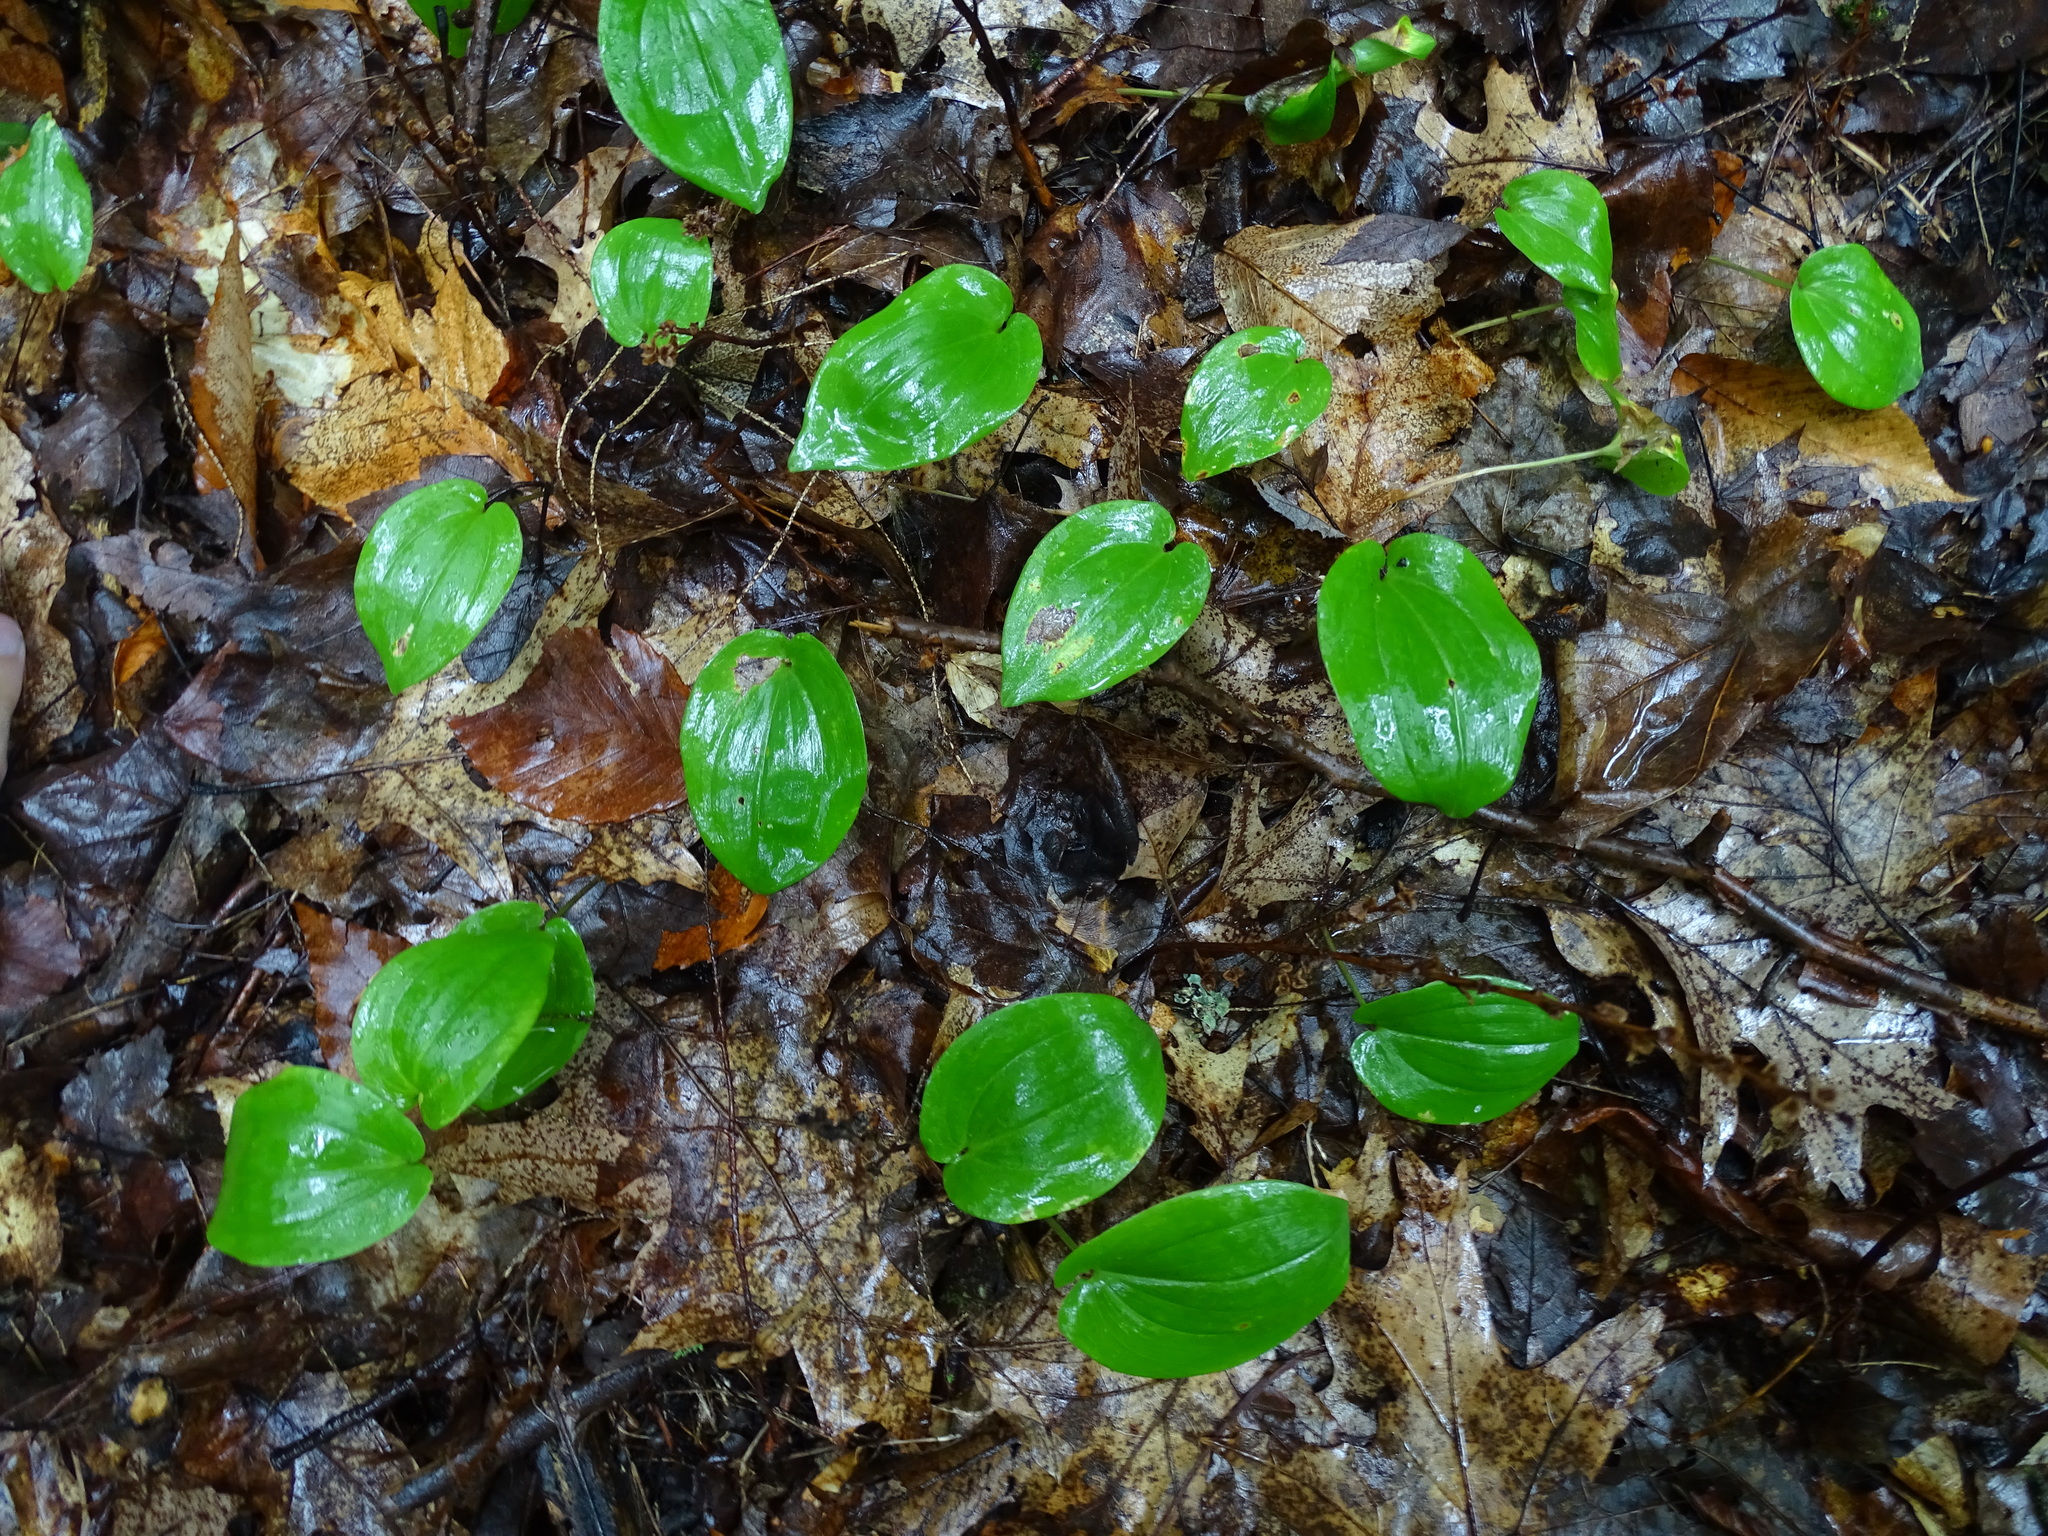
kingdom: Plantae
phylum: Tracheophyta
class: Liliopsida
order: Asparagales
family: Asparagaceae
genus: Maianthemum
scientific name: Maianthemum canadense
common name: False lily-of-the-valley
